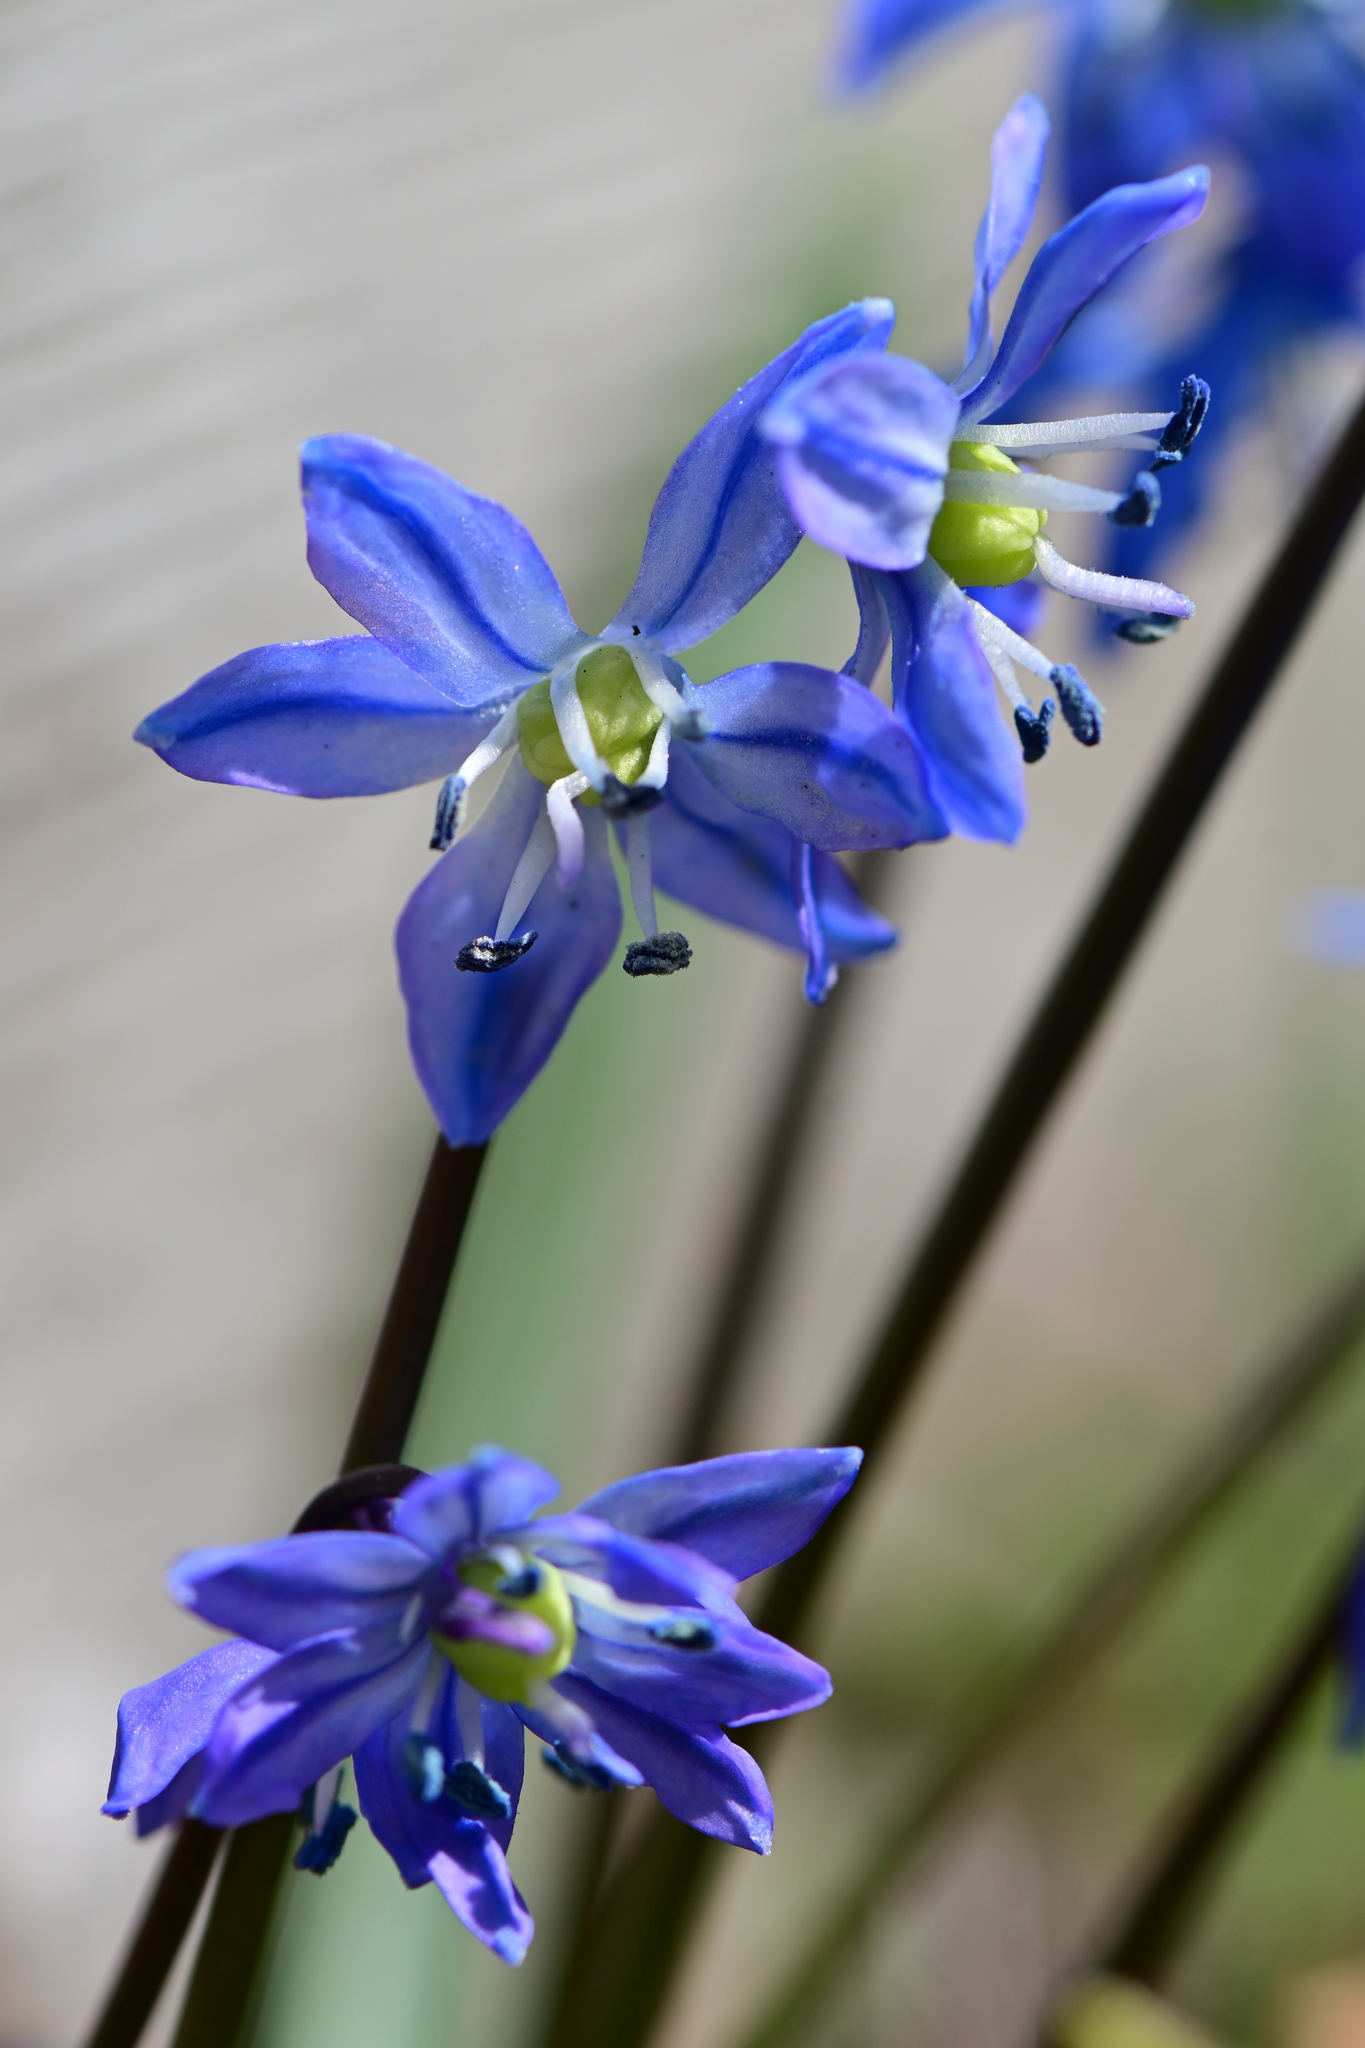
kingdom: Plantae
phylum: Tracheophyta
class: Liliopsida
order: Asparagales
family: Asparagaceae
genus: Scilla
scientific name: Scilla siberica
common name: Siberian squill
